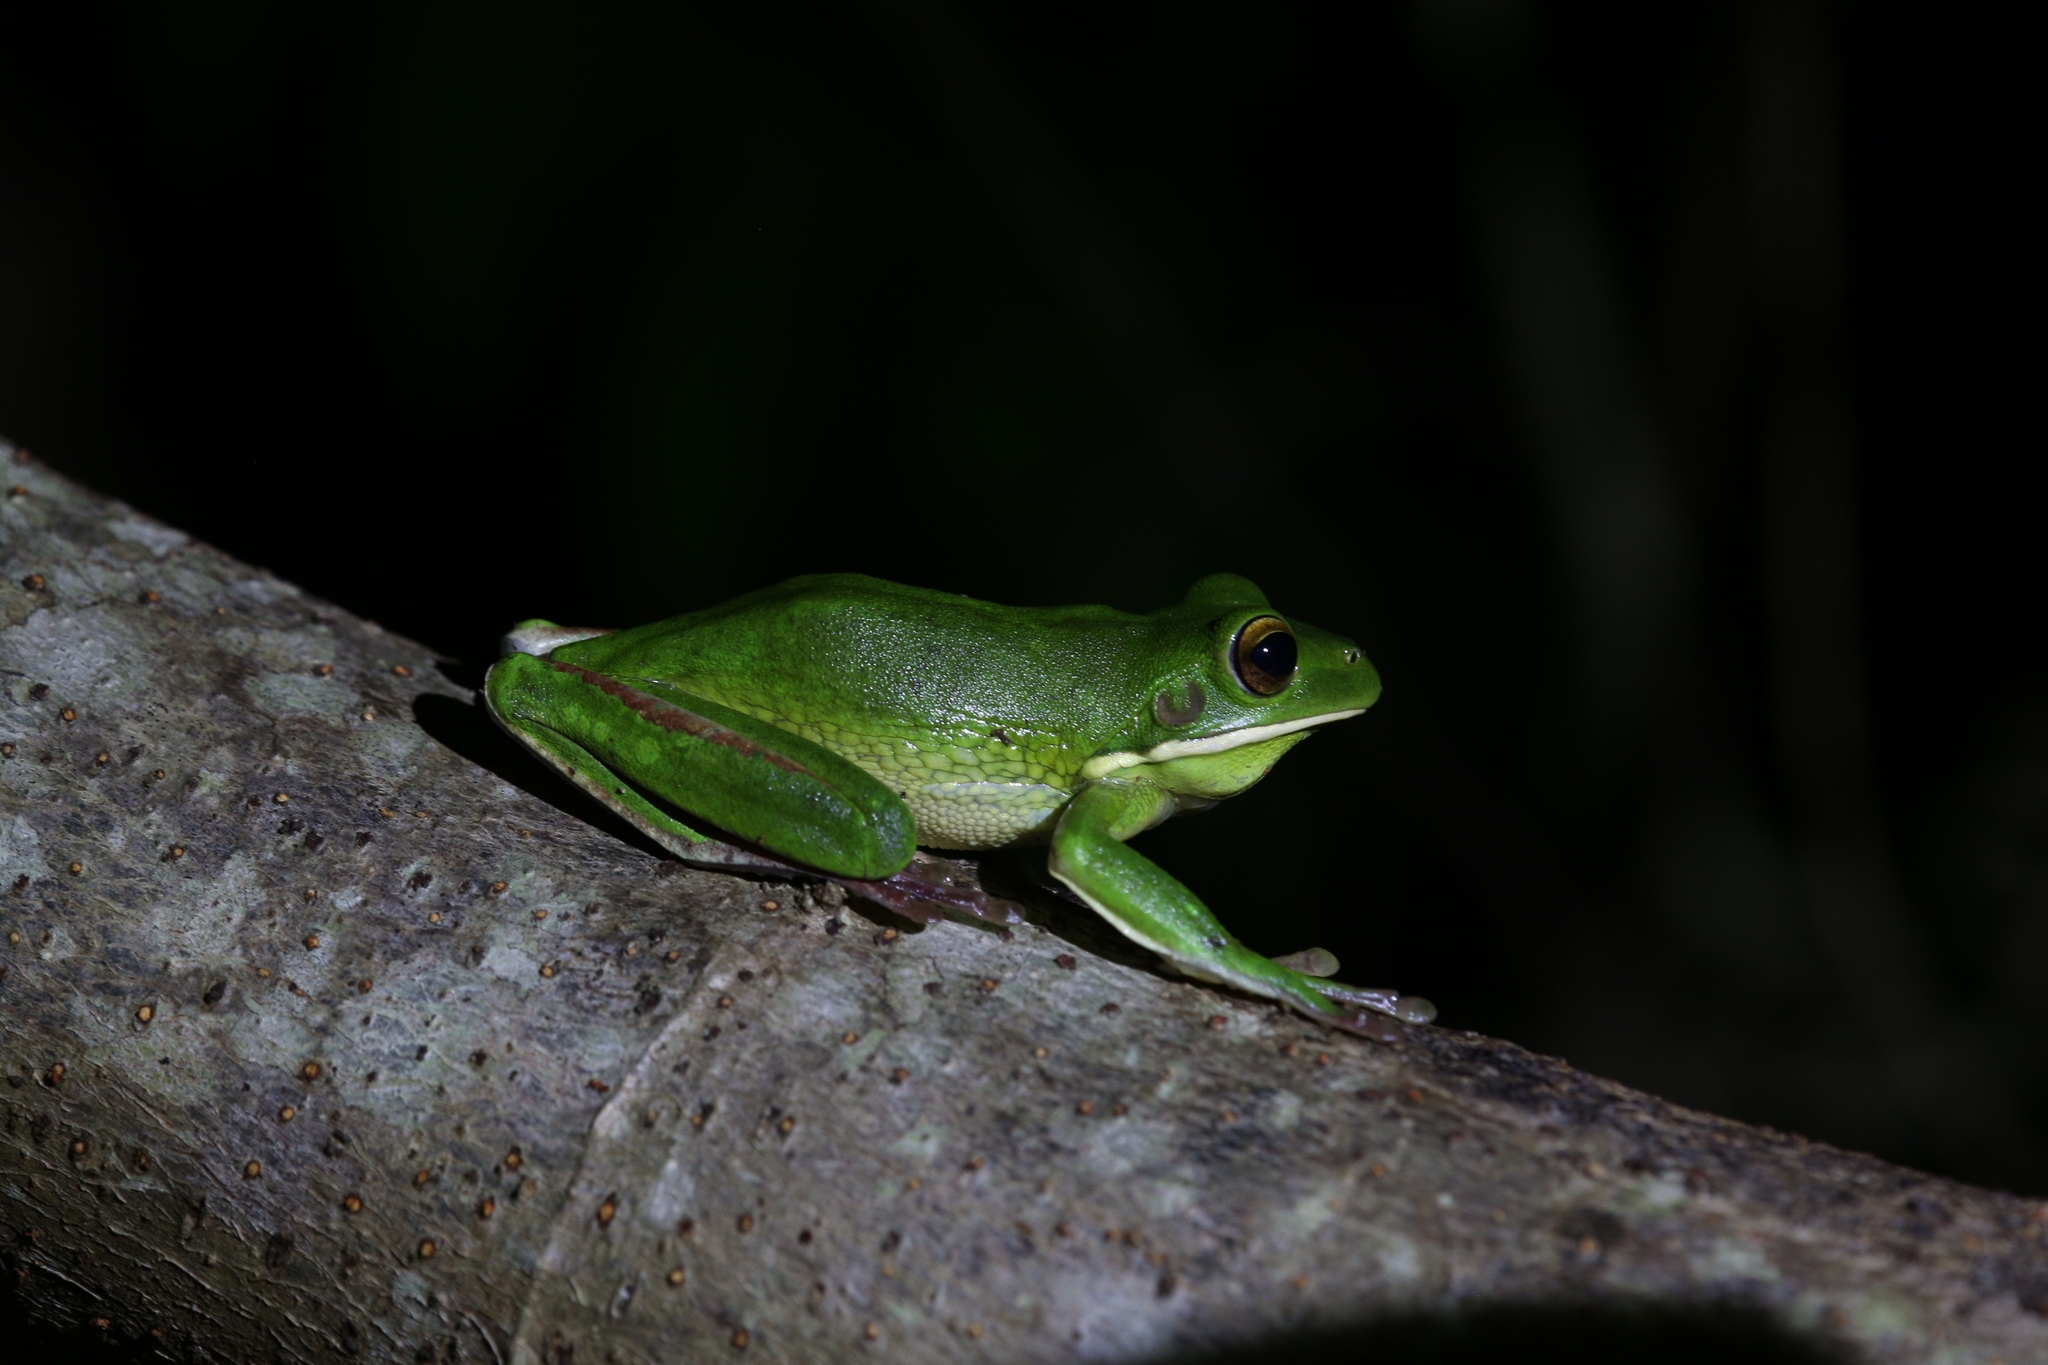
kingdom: Animalia
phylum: Chordata
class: Amphibia
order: Anura
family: Pelodryadidae
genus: Nyctimystes
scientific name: Nyctimystes infrafrenatus
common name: Australian giant treefrog
